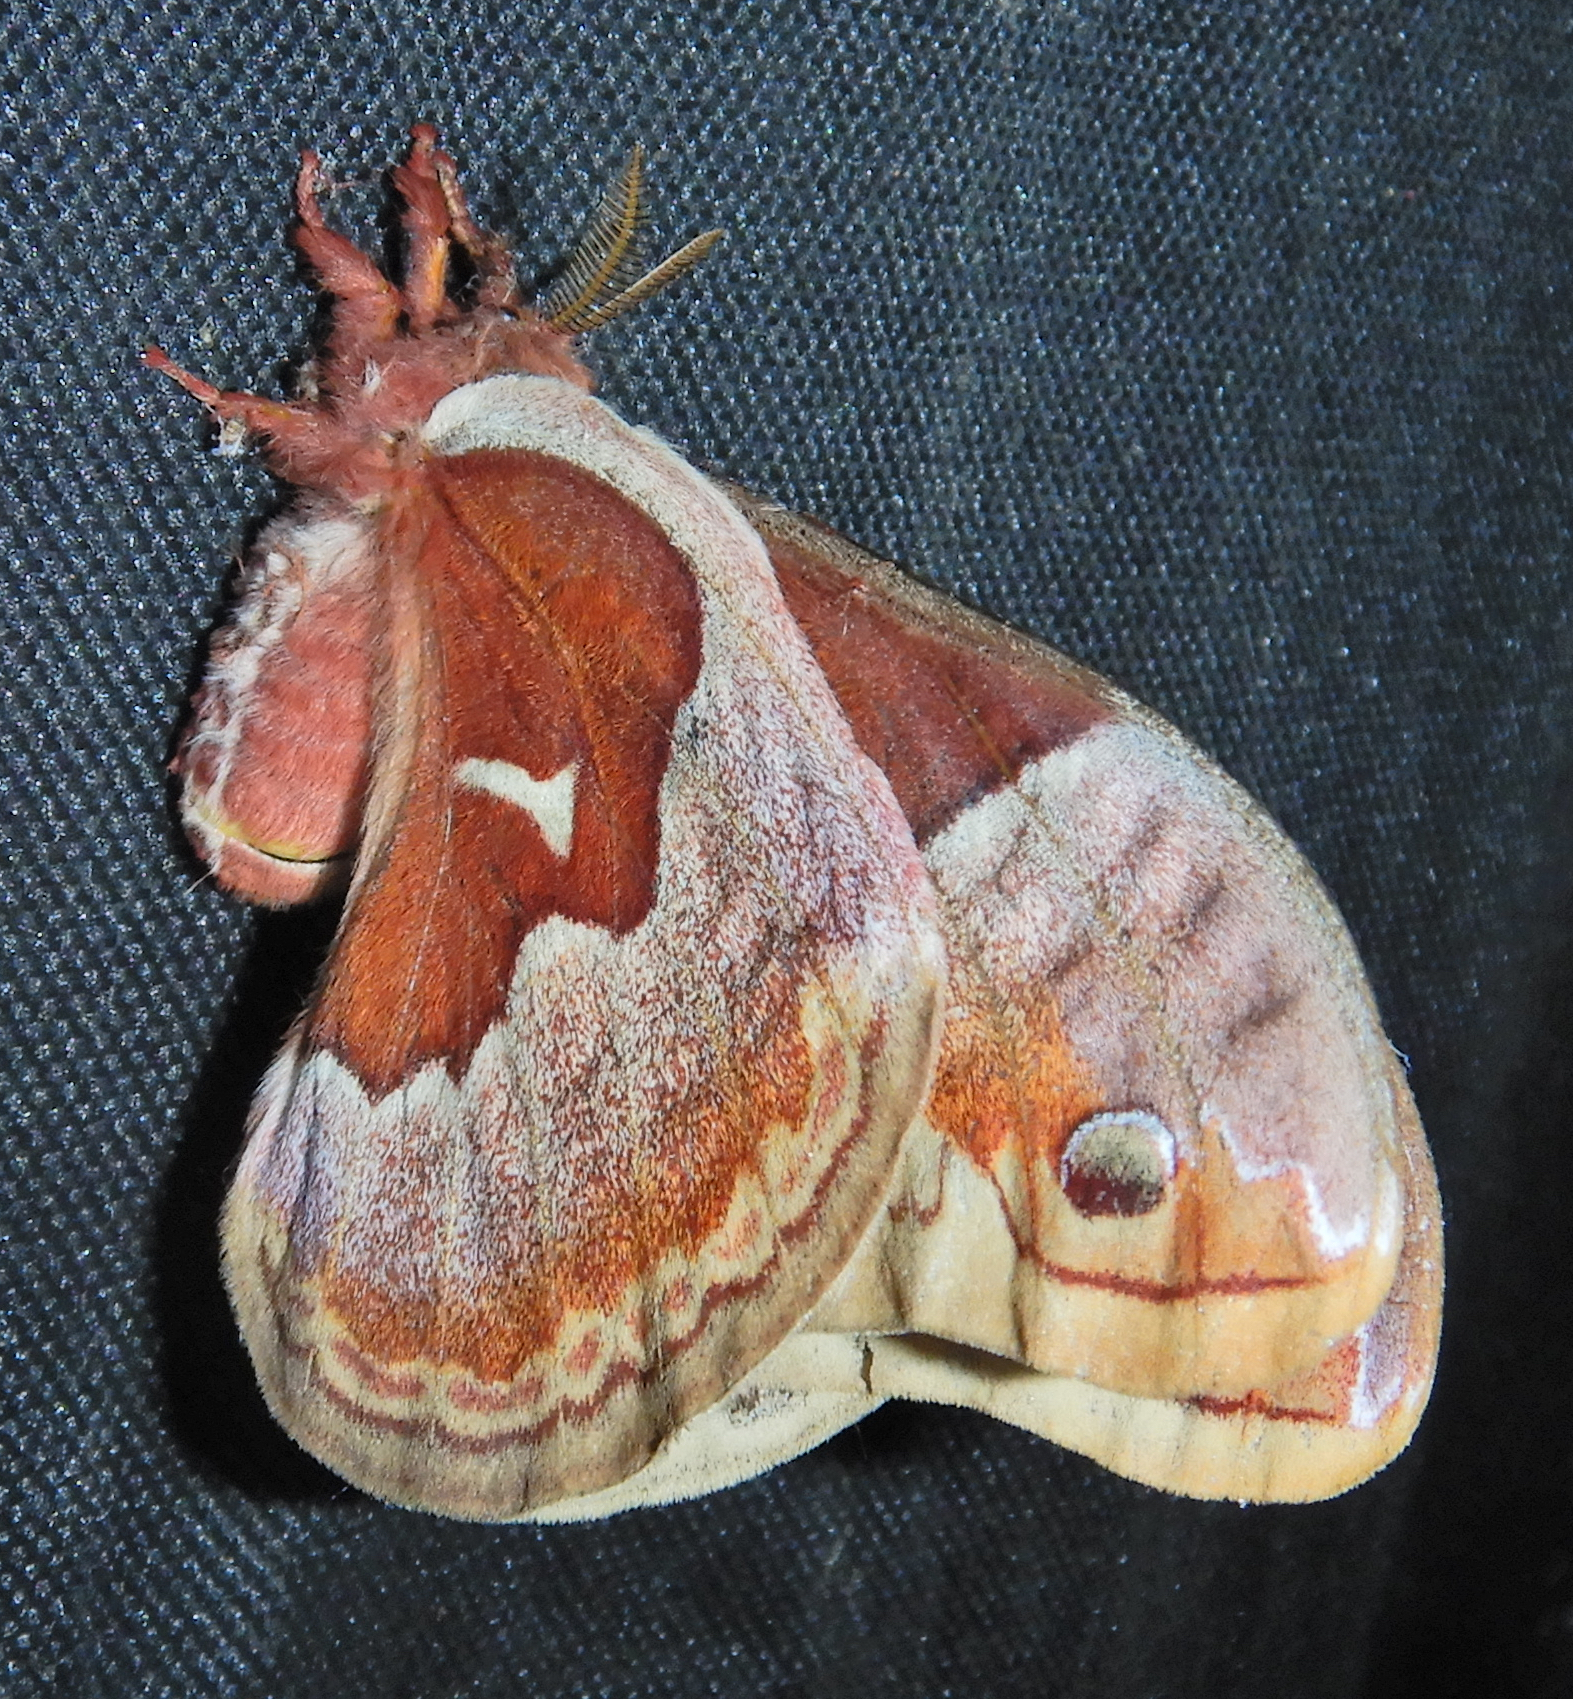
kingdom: Animalia
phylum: Arthropoda
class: Insecta
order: Lepidoptera
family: Saturniidae
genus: Callosamia
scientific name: Callosamia promethea
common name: Promethea silkmoth
